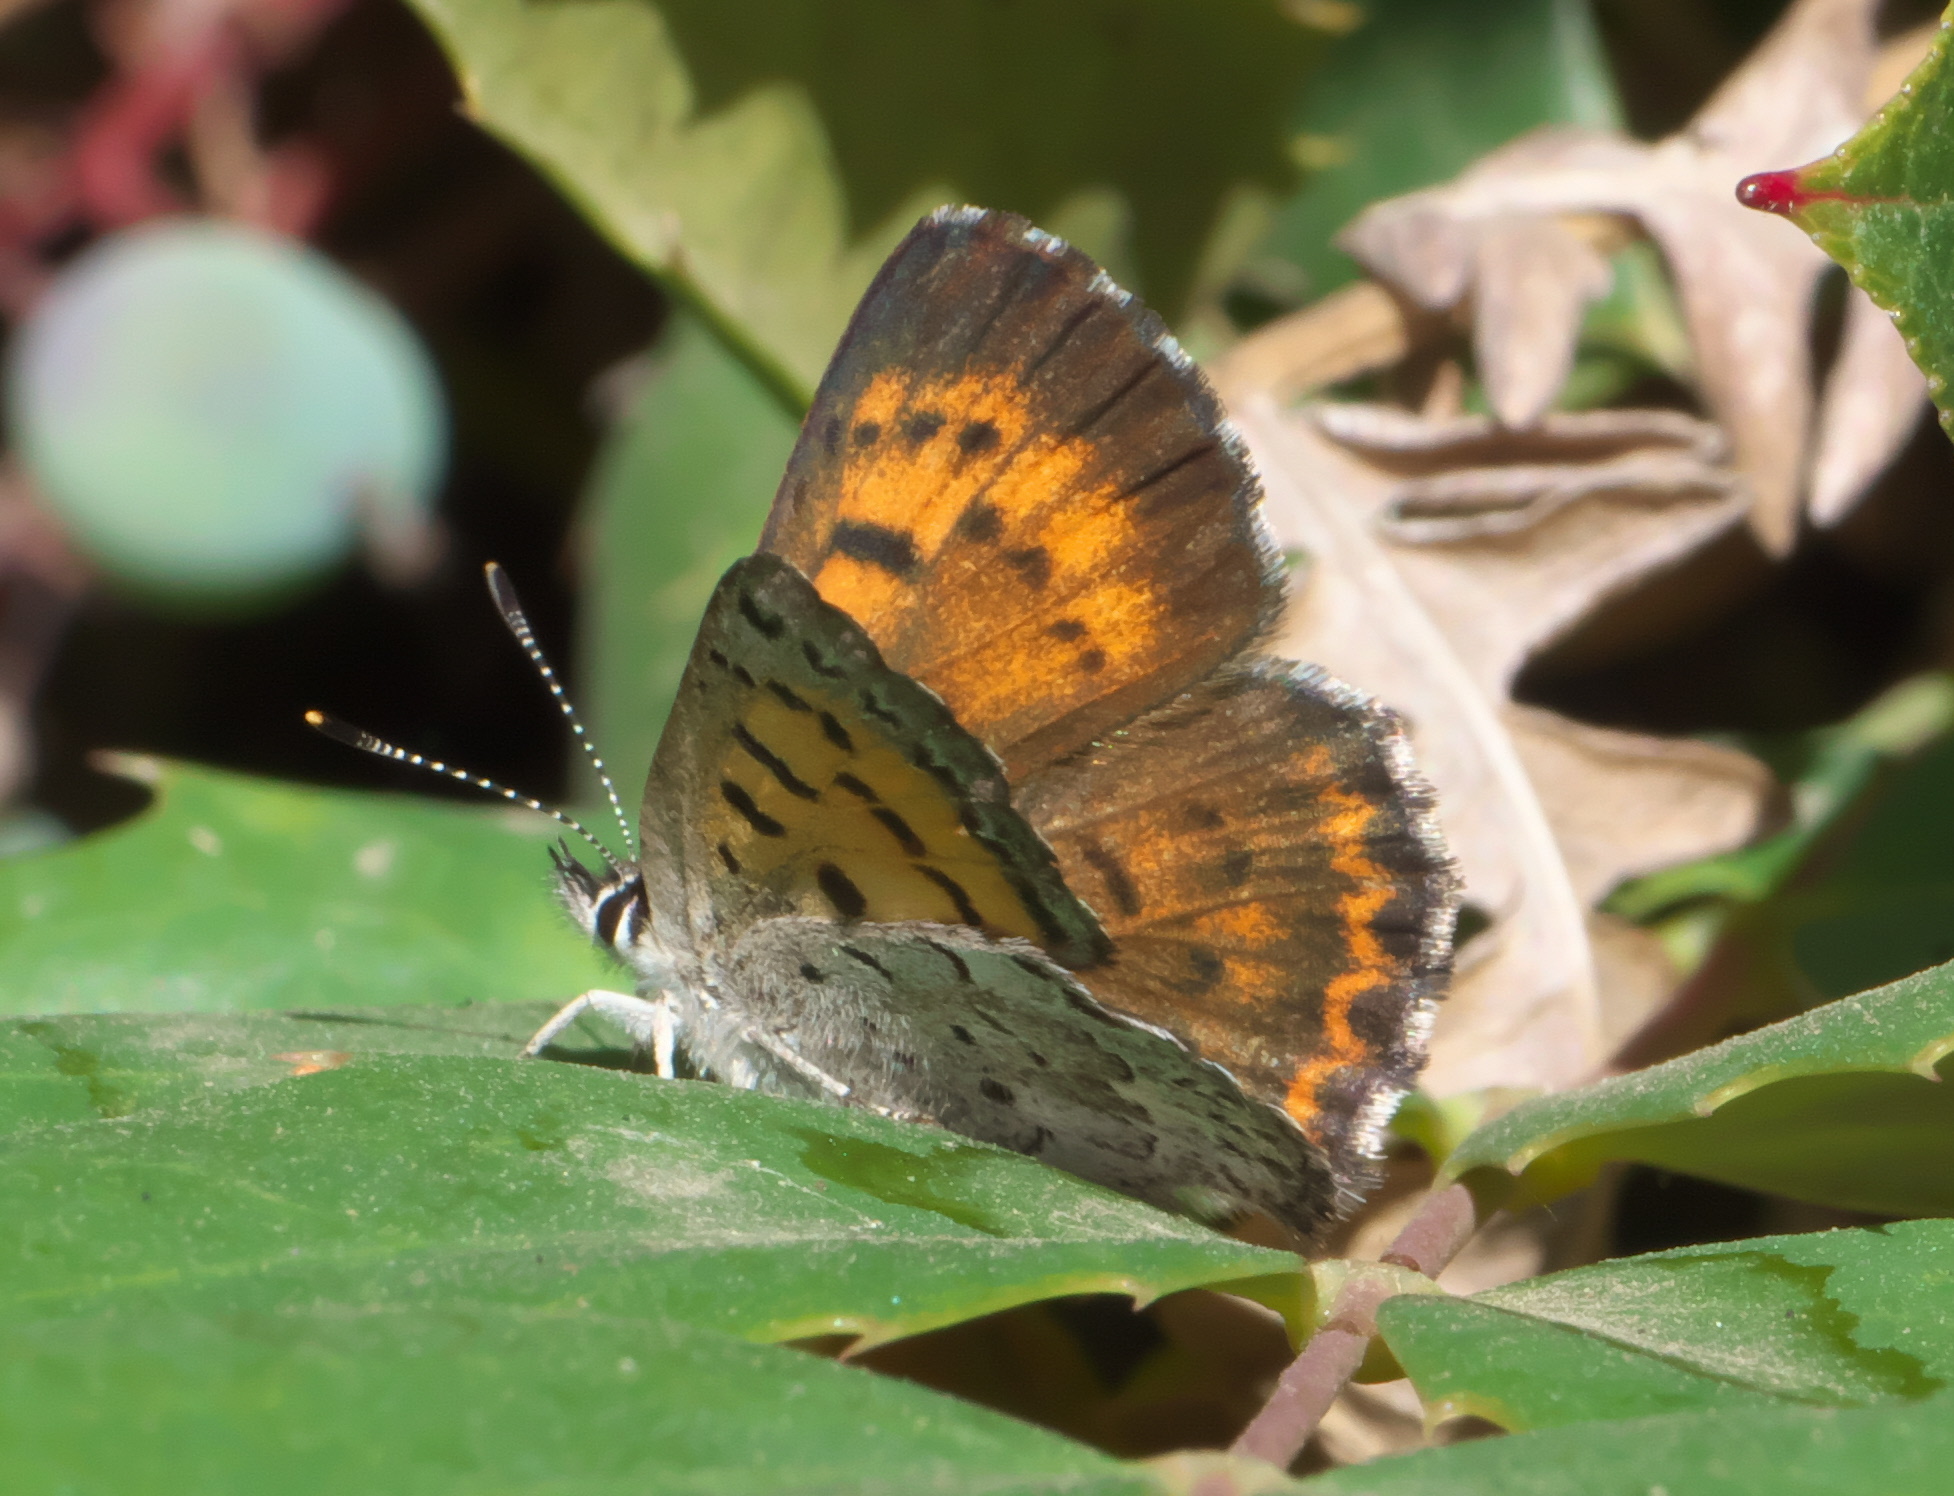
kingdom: Animalia
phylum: Arthropoda
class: Insecta
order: Lepidoptera
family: Lycaenidae
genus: Tharsalea
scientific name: Tharsalea mariposa
